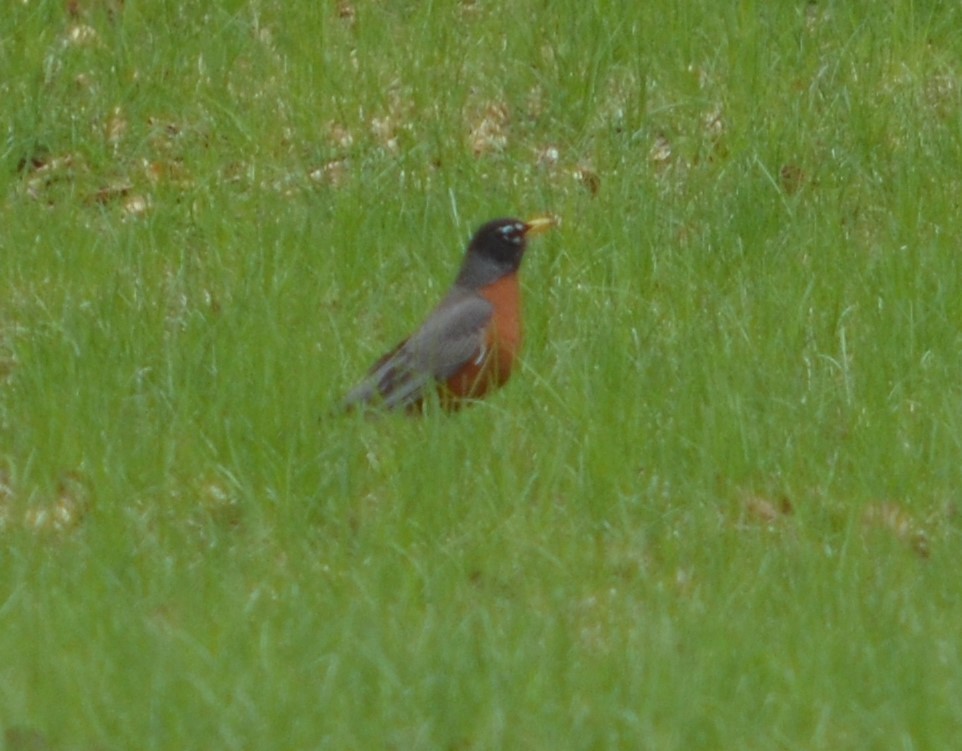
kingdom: Animalia
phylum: Chordata
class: Aves
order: Passeriformes
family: Turdidae
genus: Turdus
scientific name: Turdus migratorius
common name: American robin
